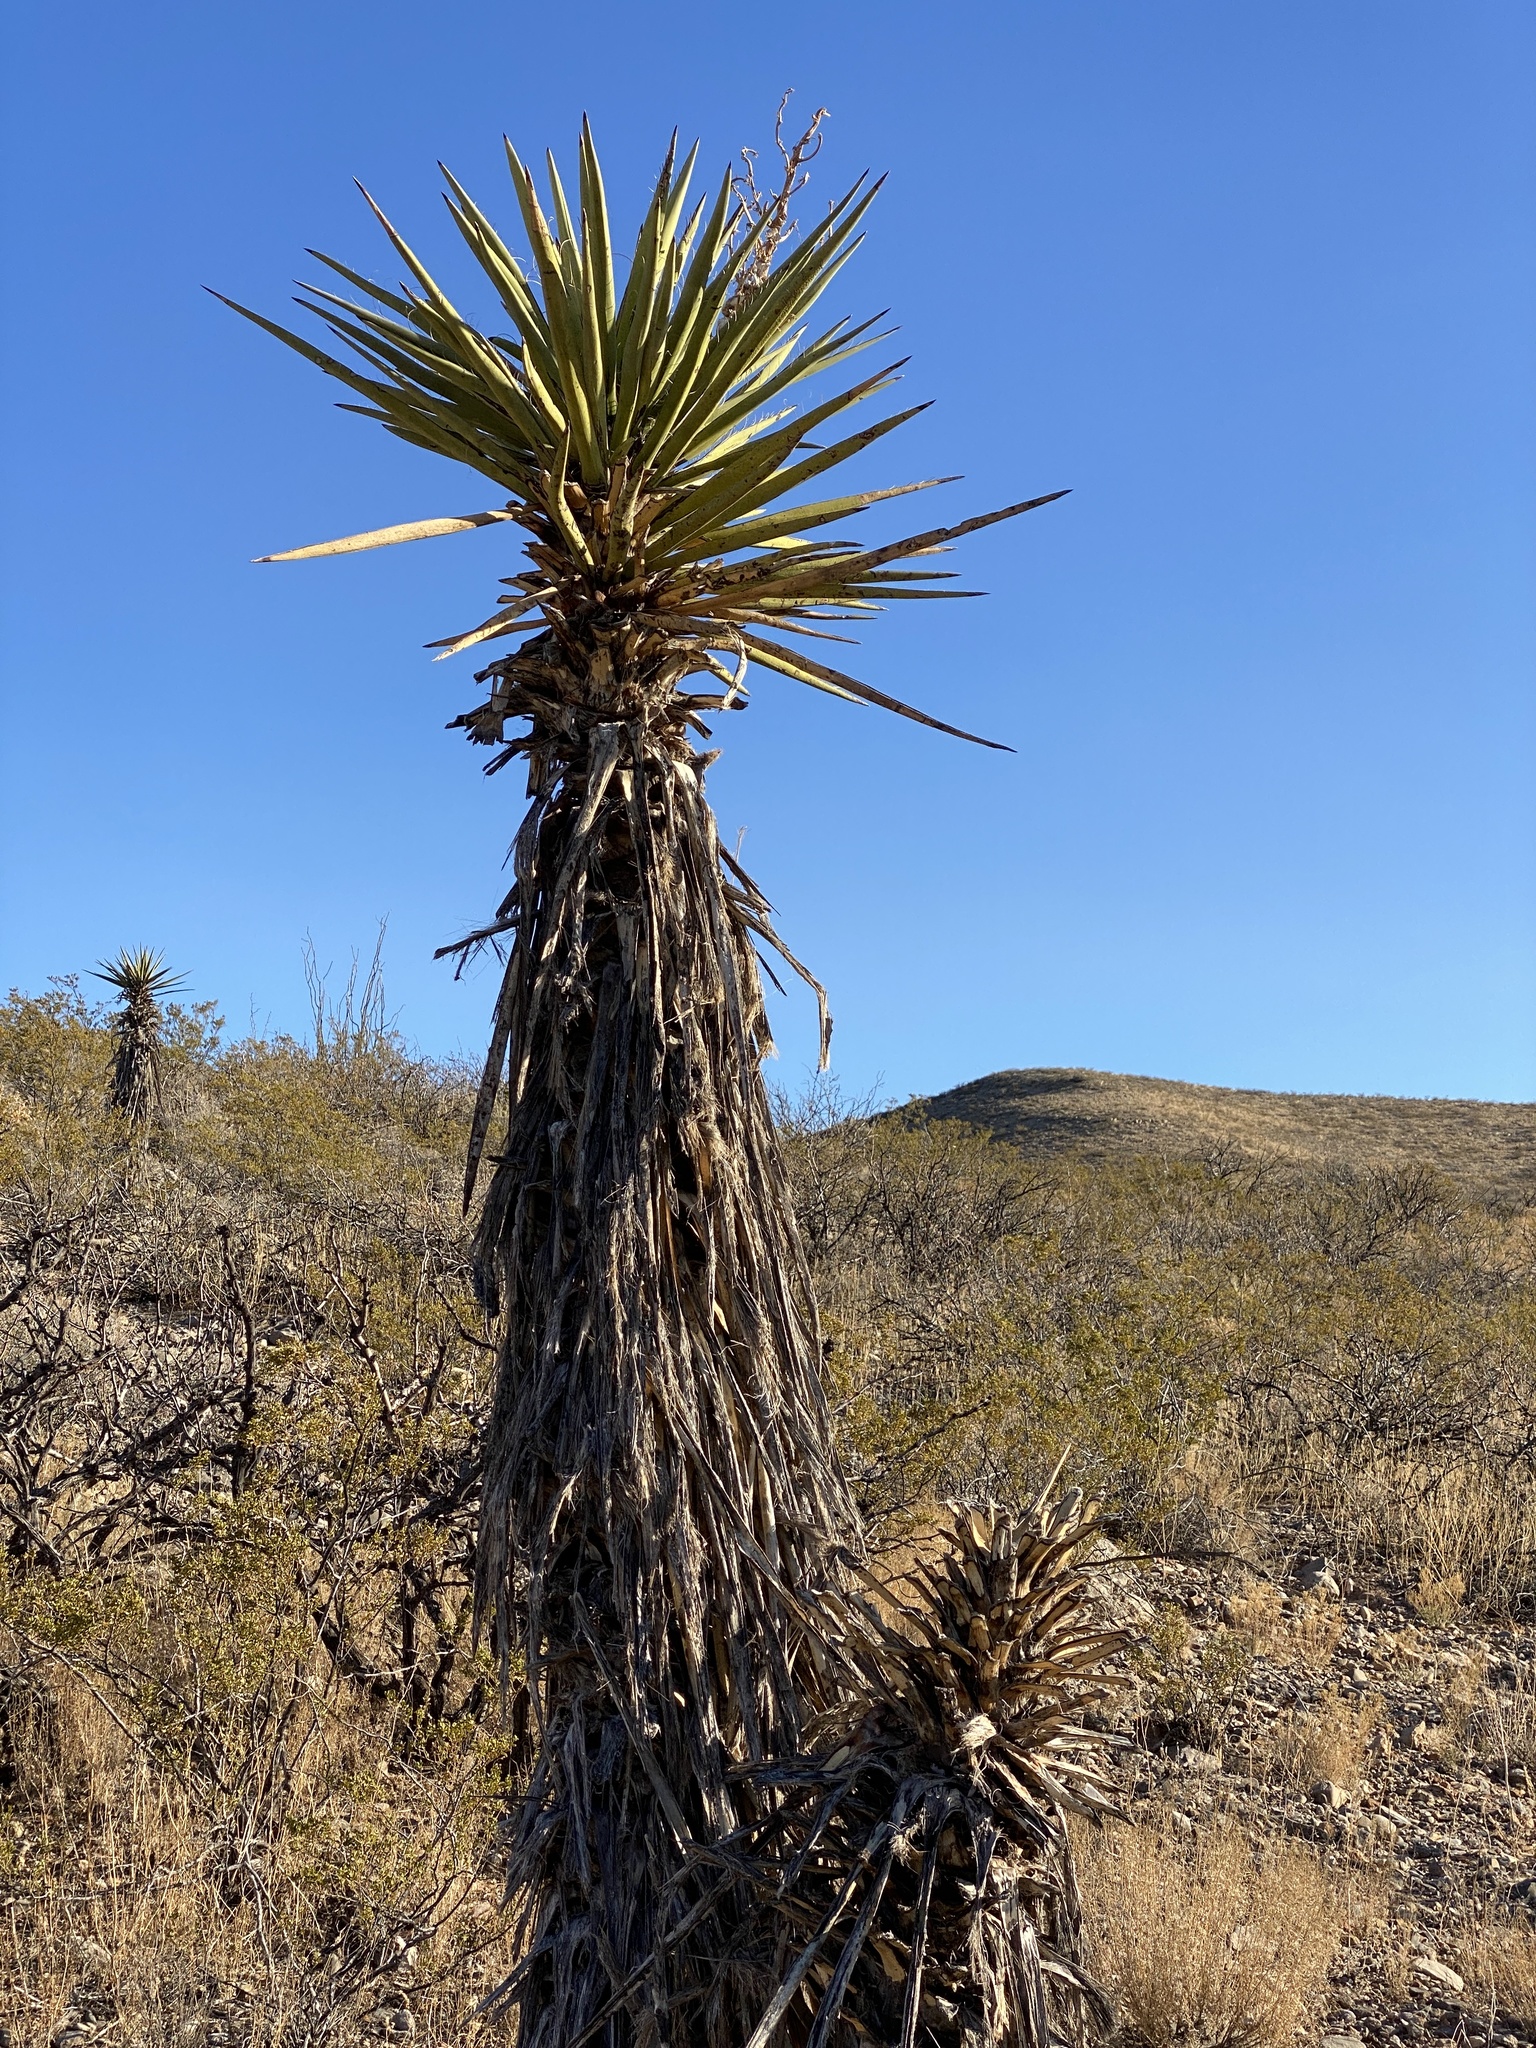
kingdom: Plantae
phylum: Tracheophyta
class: Liliopsida
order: Asparagales
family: Asparagaceae
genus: Yucca
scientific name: Yucca treculiana
